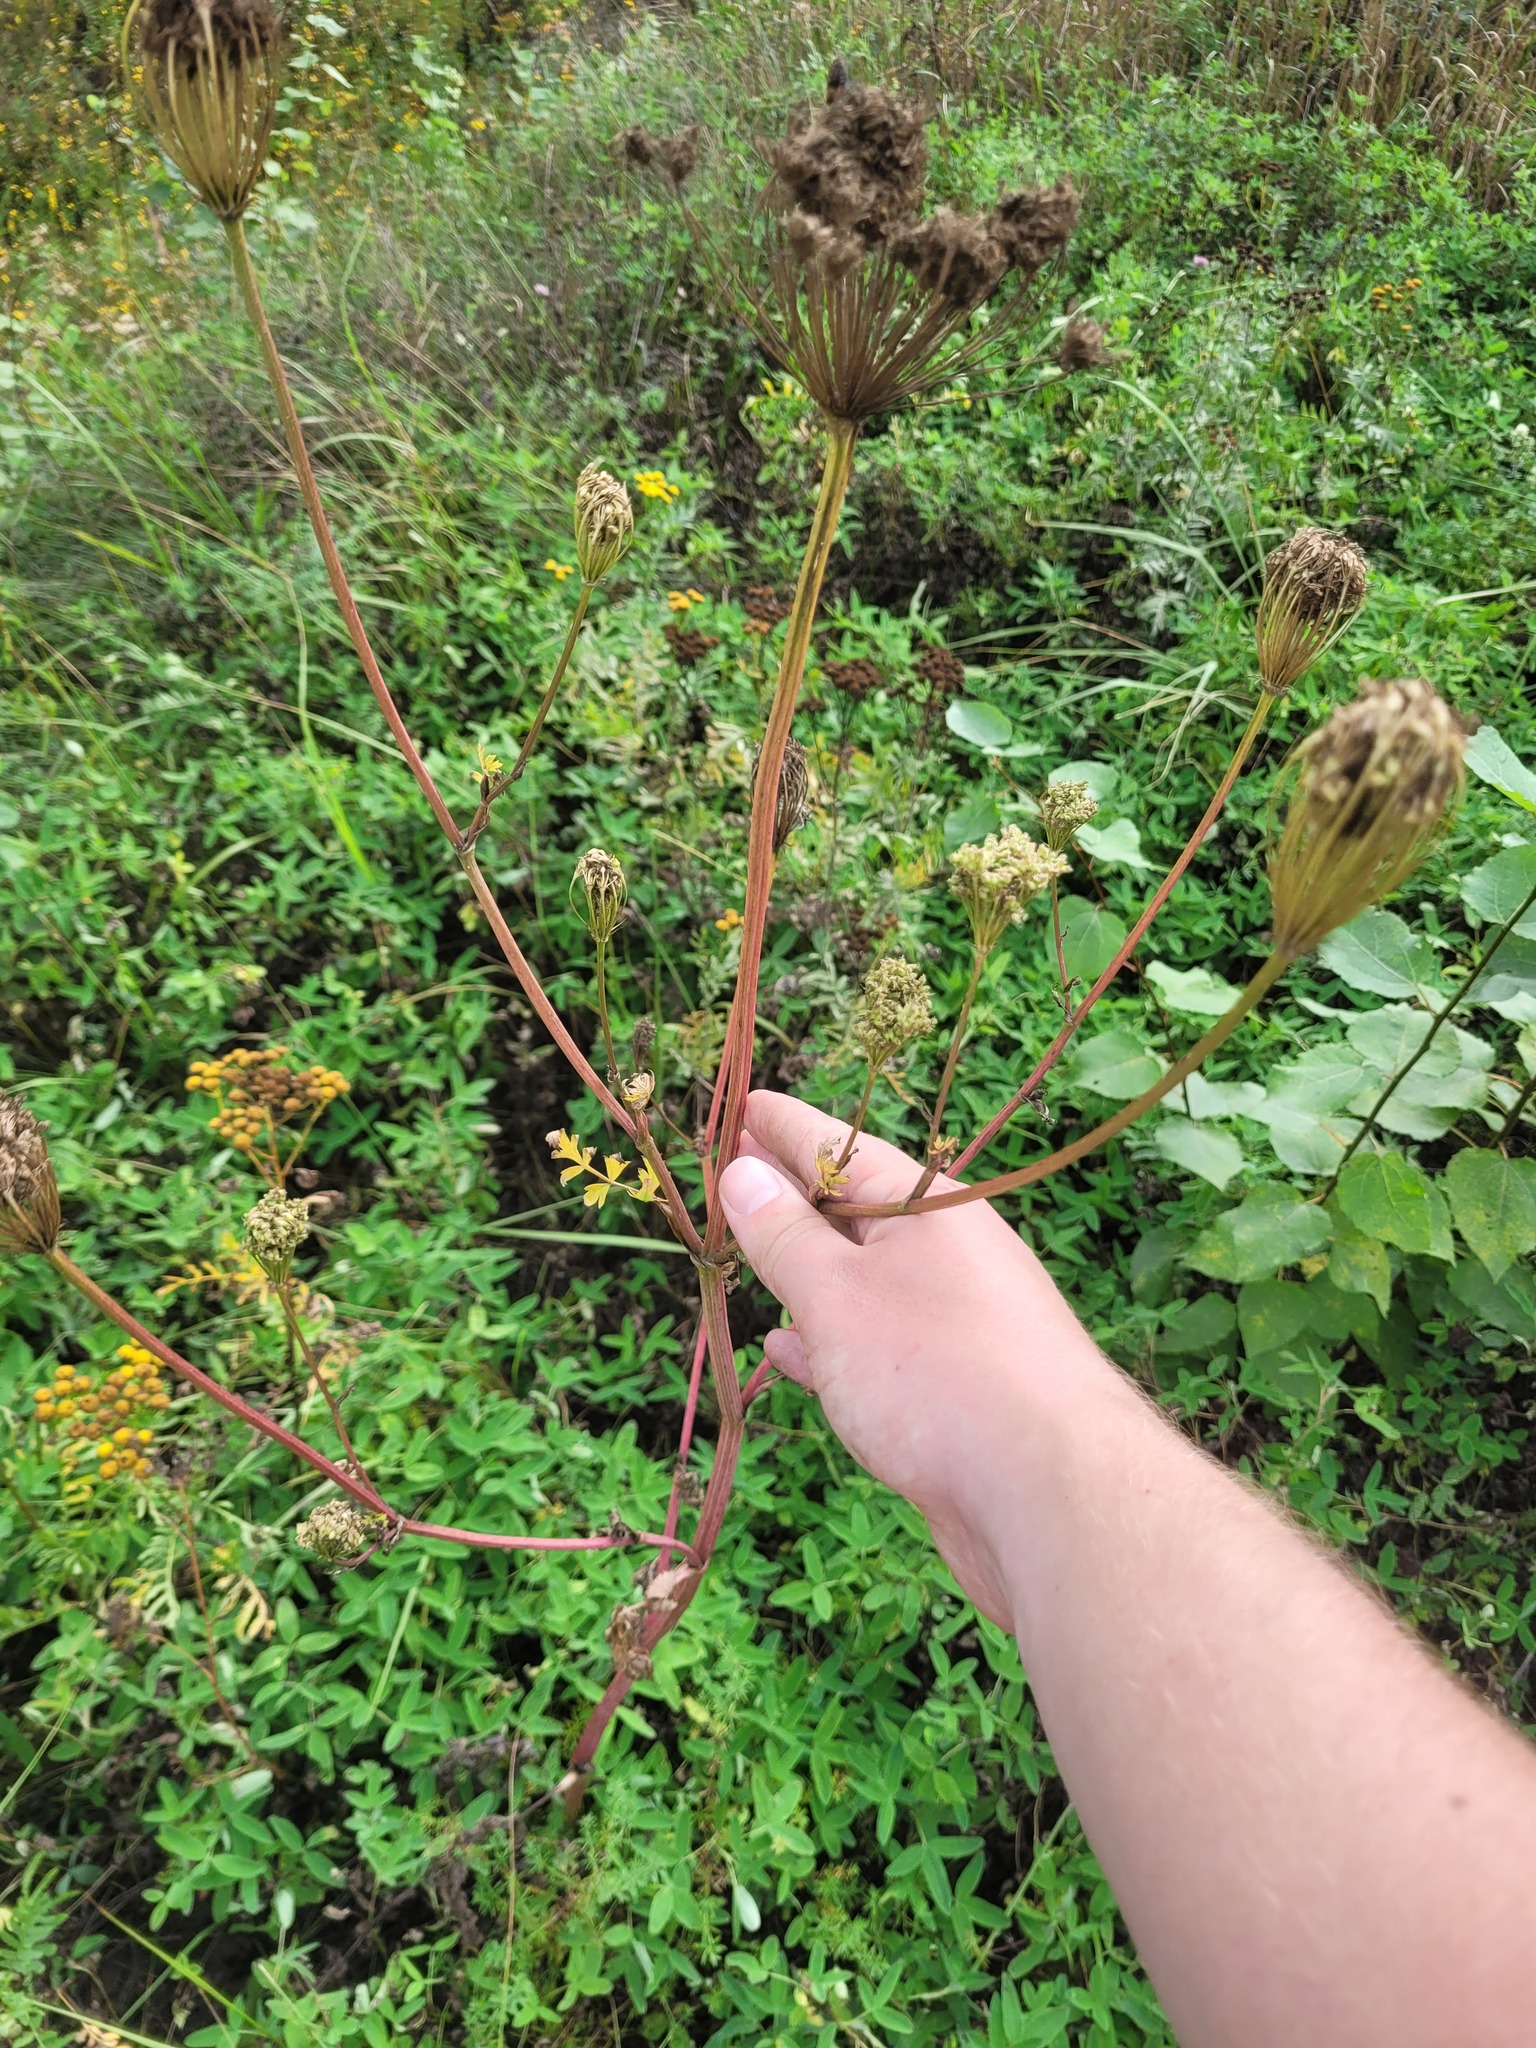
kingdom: Plantae
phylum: Tracheophyta
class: Magnoliopsida
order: Apiales
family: Apiaceae
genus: Seseli
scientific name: Seseli libanotis
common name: Mooncarrot
